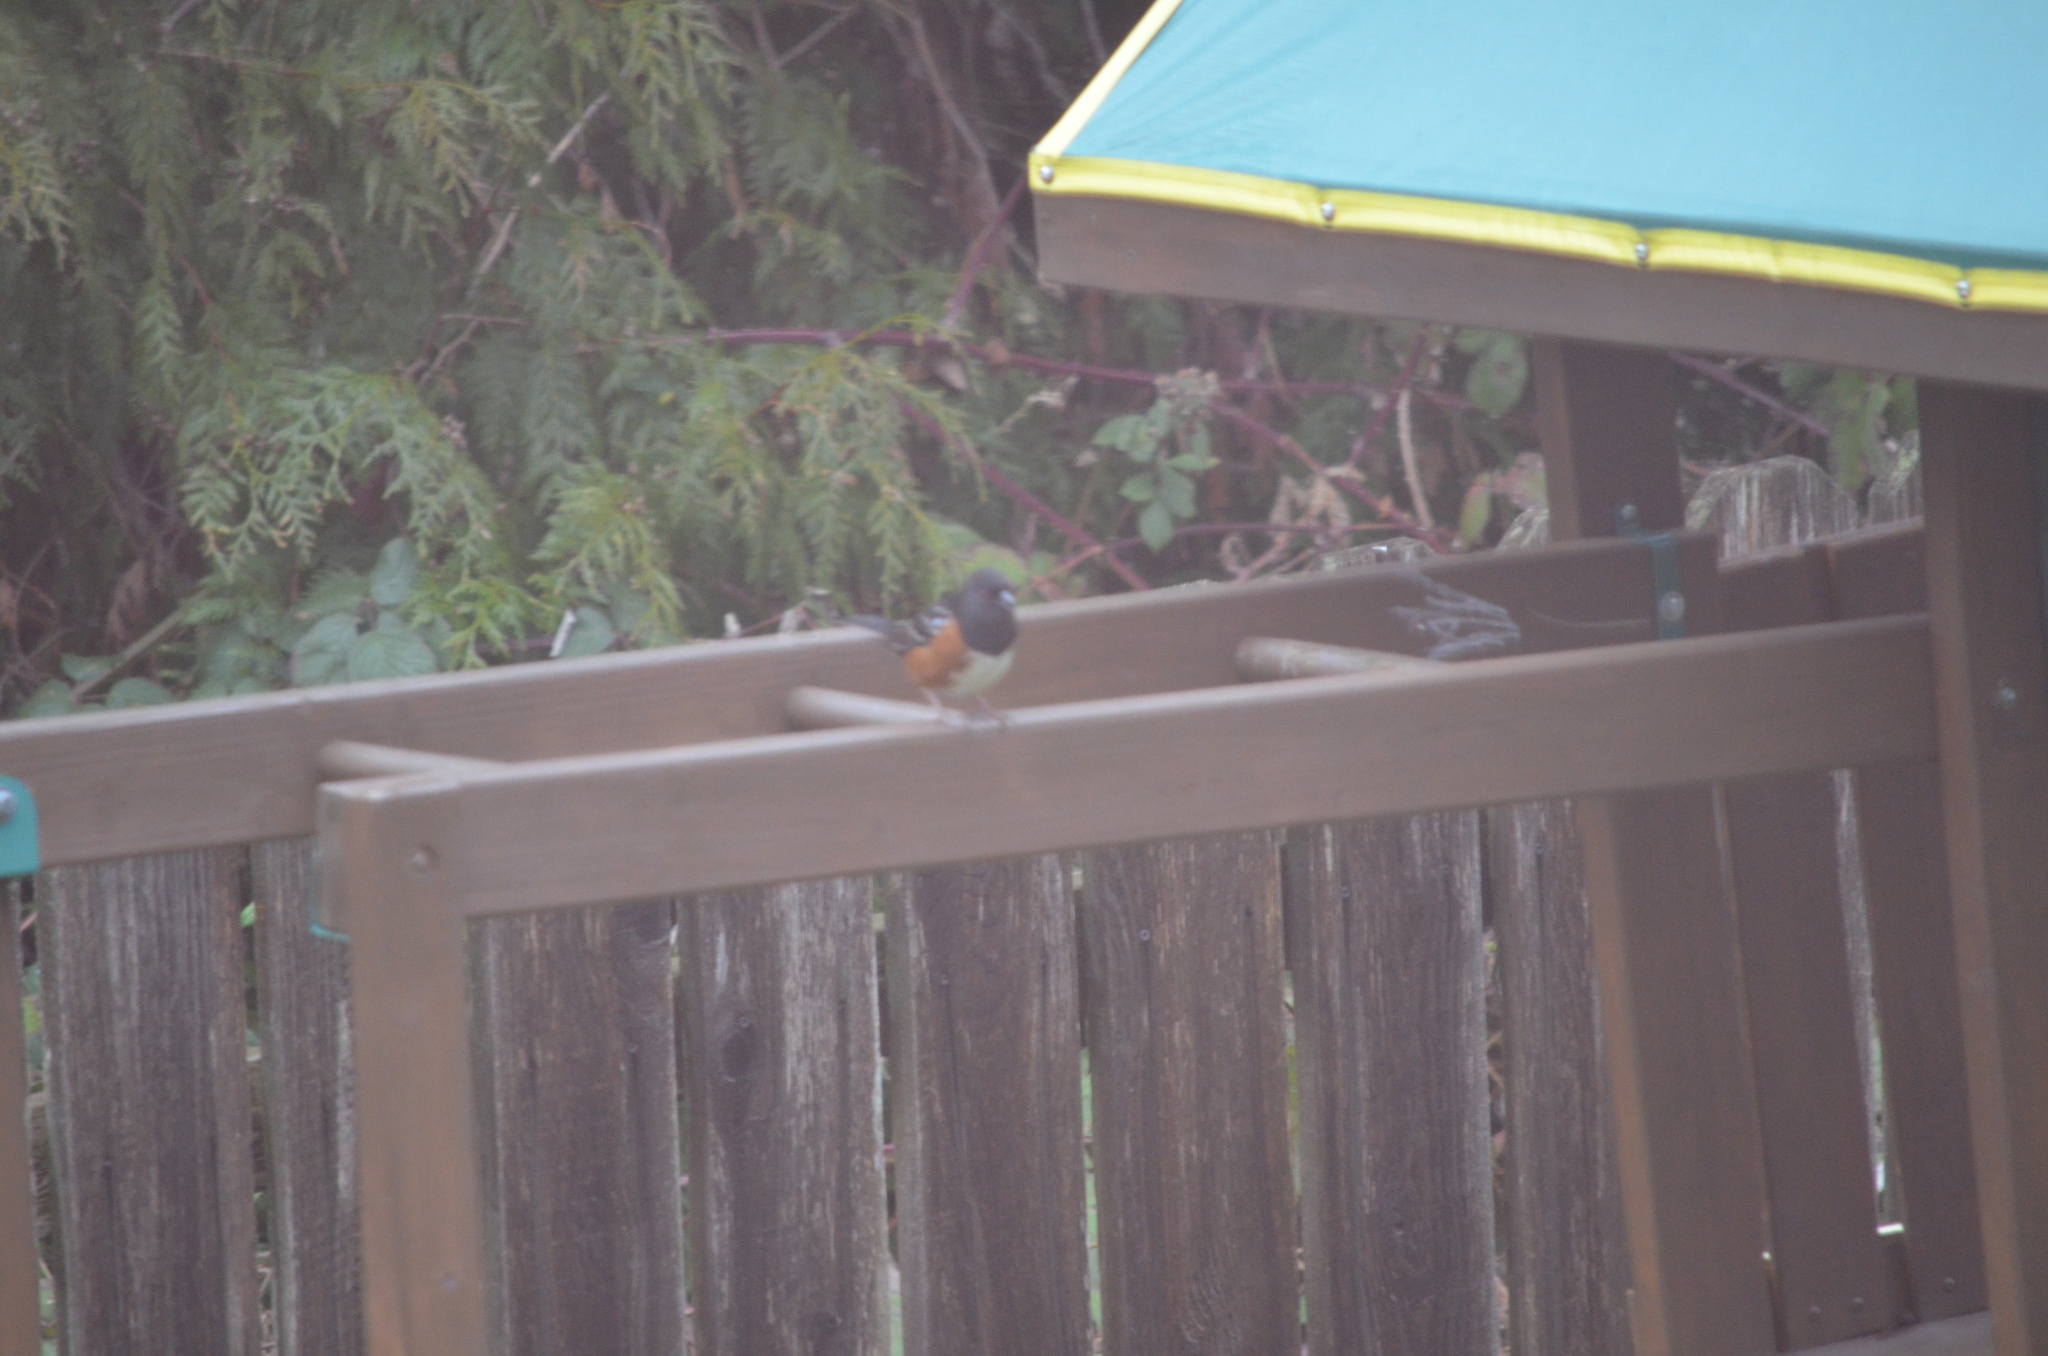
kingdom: Animalia
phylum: Chordata
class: Aves
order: Passeriformes
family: Passerellidae
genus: Pipilo
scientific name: Pipilo maculatus
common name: Spotted towhee
